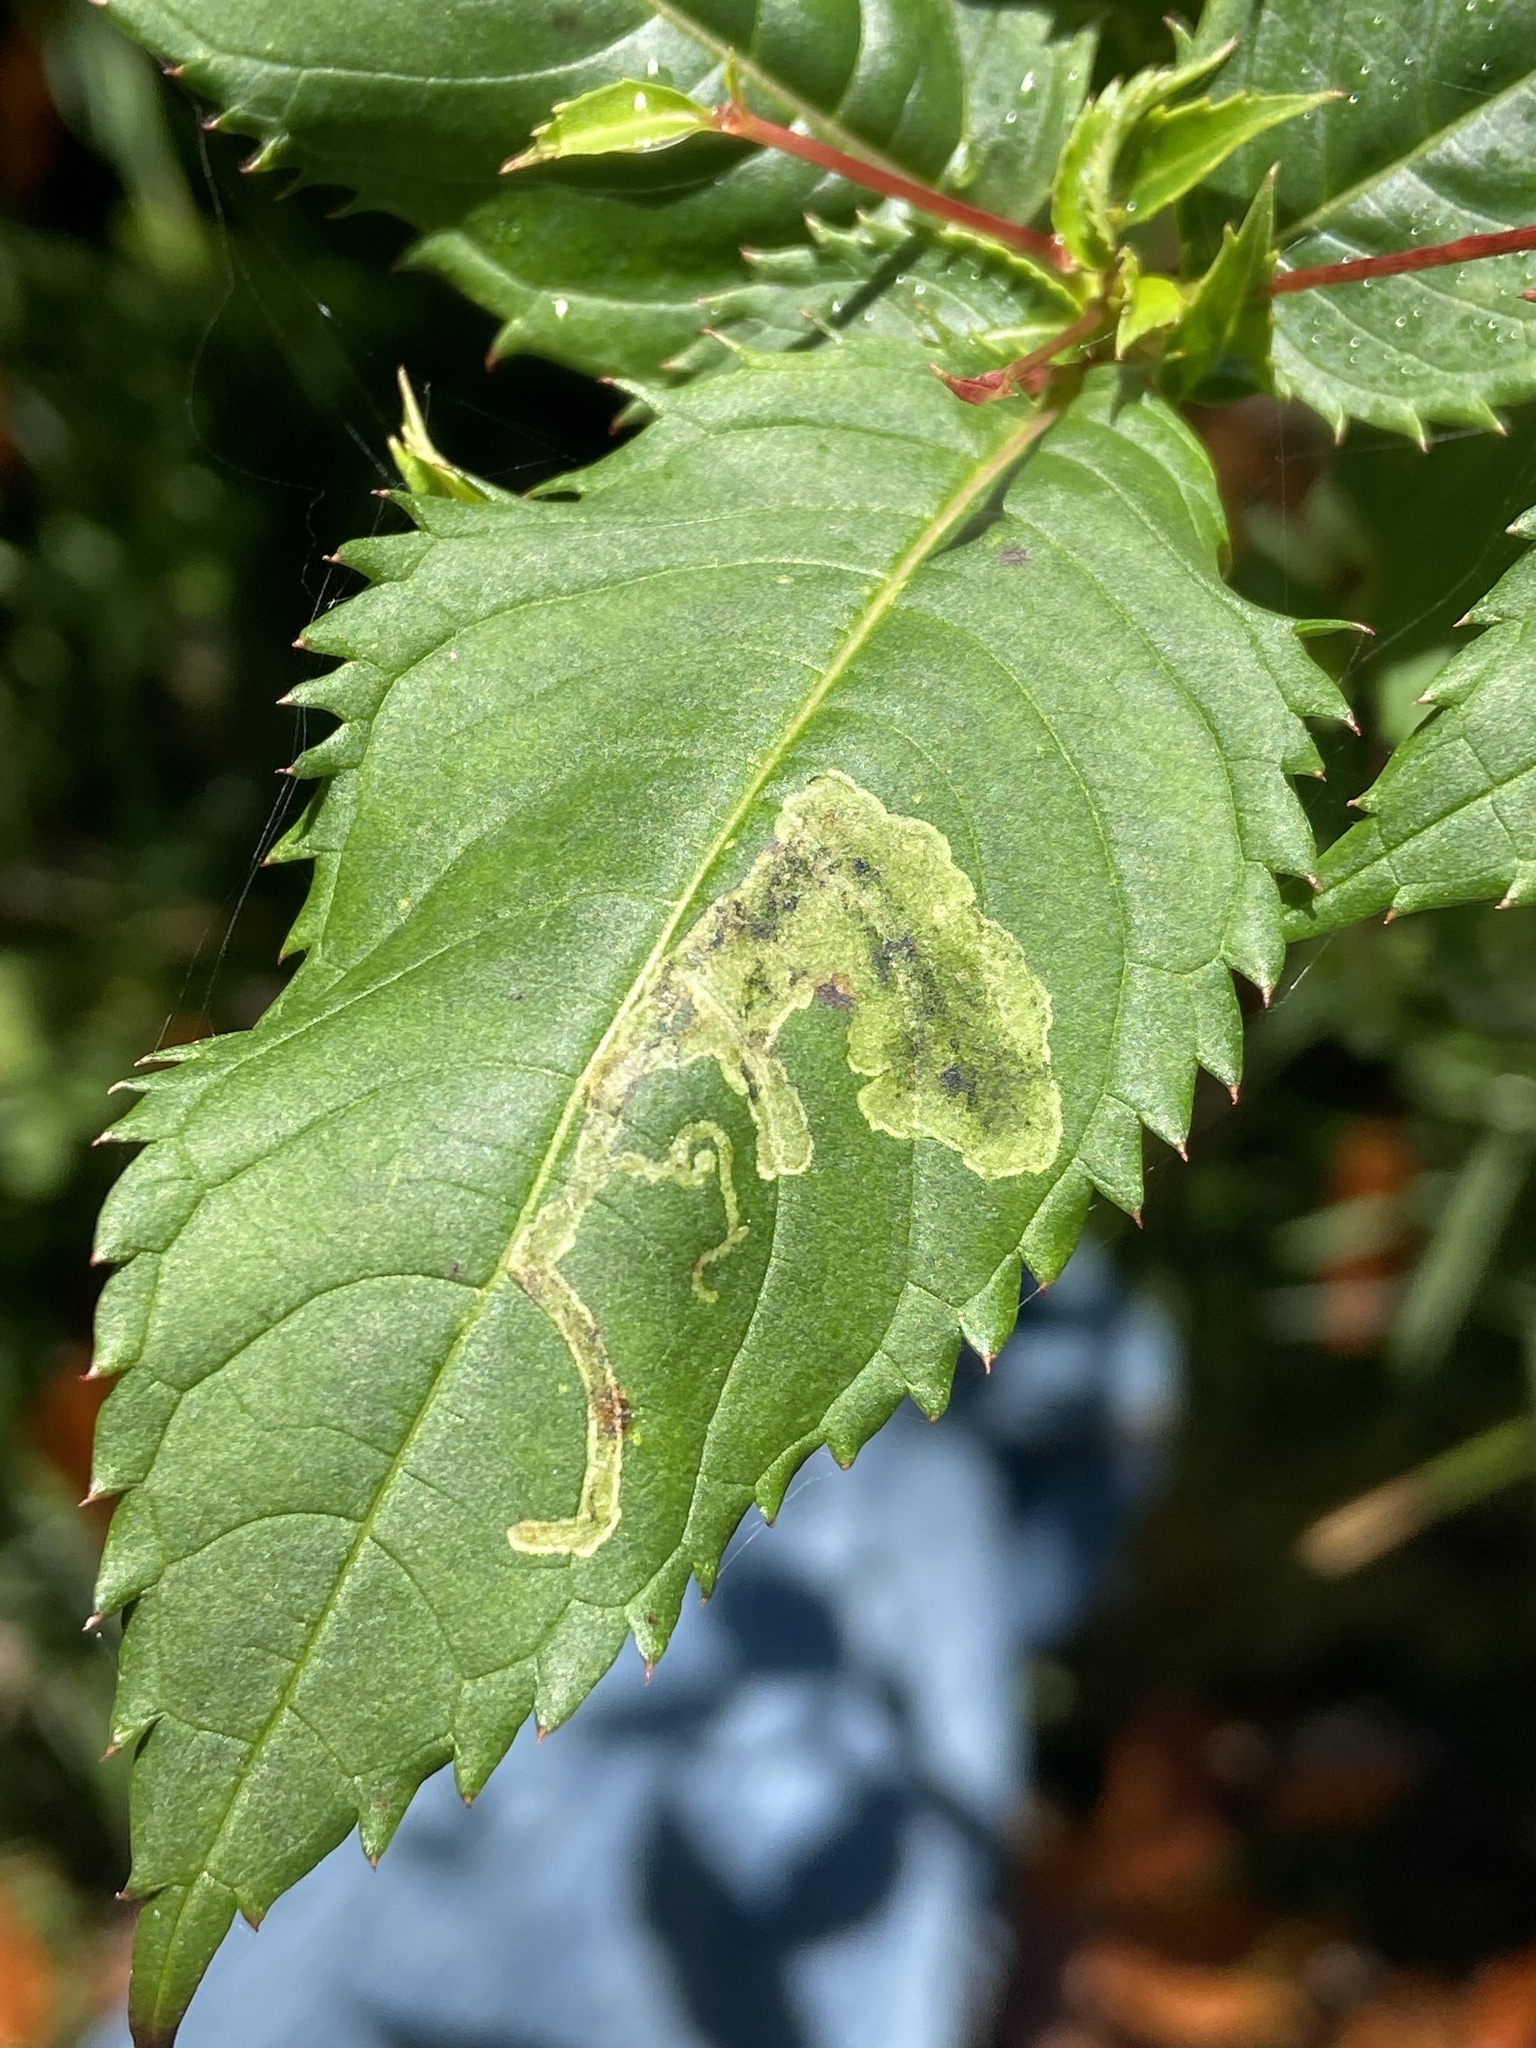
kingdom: Animalia
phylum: Arthropoda
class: Insecta
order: Diptera
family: Agromyzidae
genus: Phytoliriomyza
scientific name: Phytoliriomyza melampyga
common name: Jewelweed leaf-miner fly
